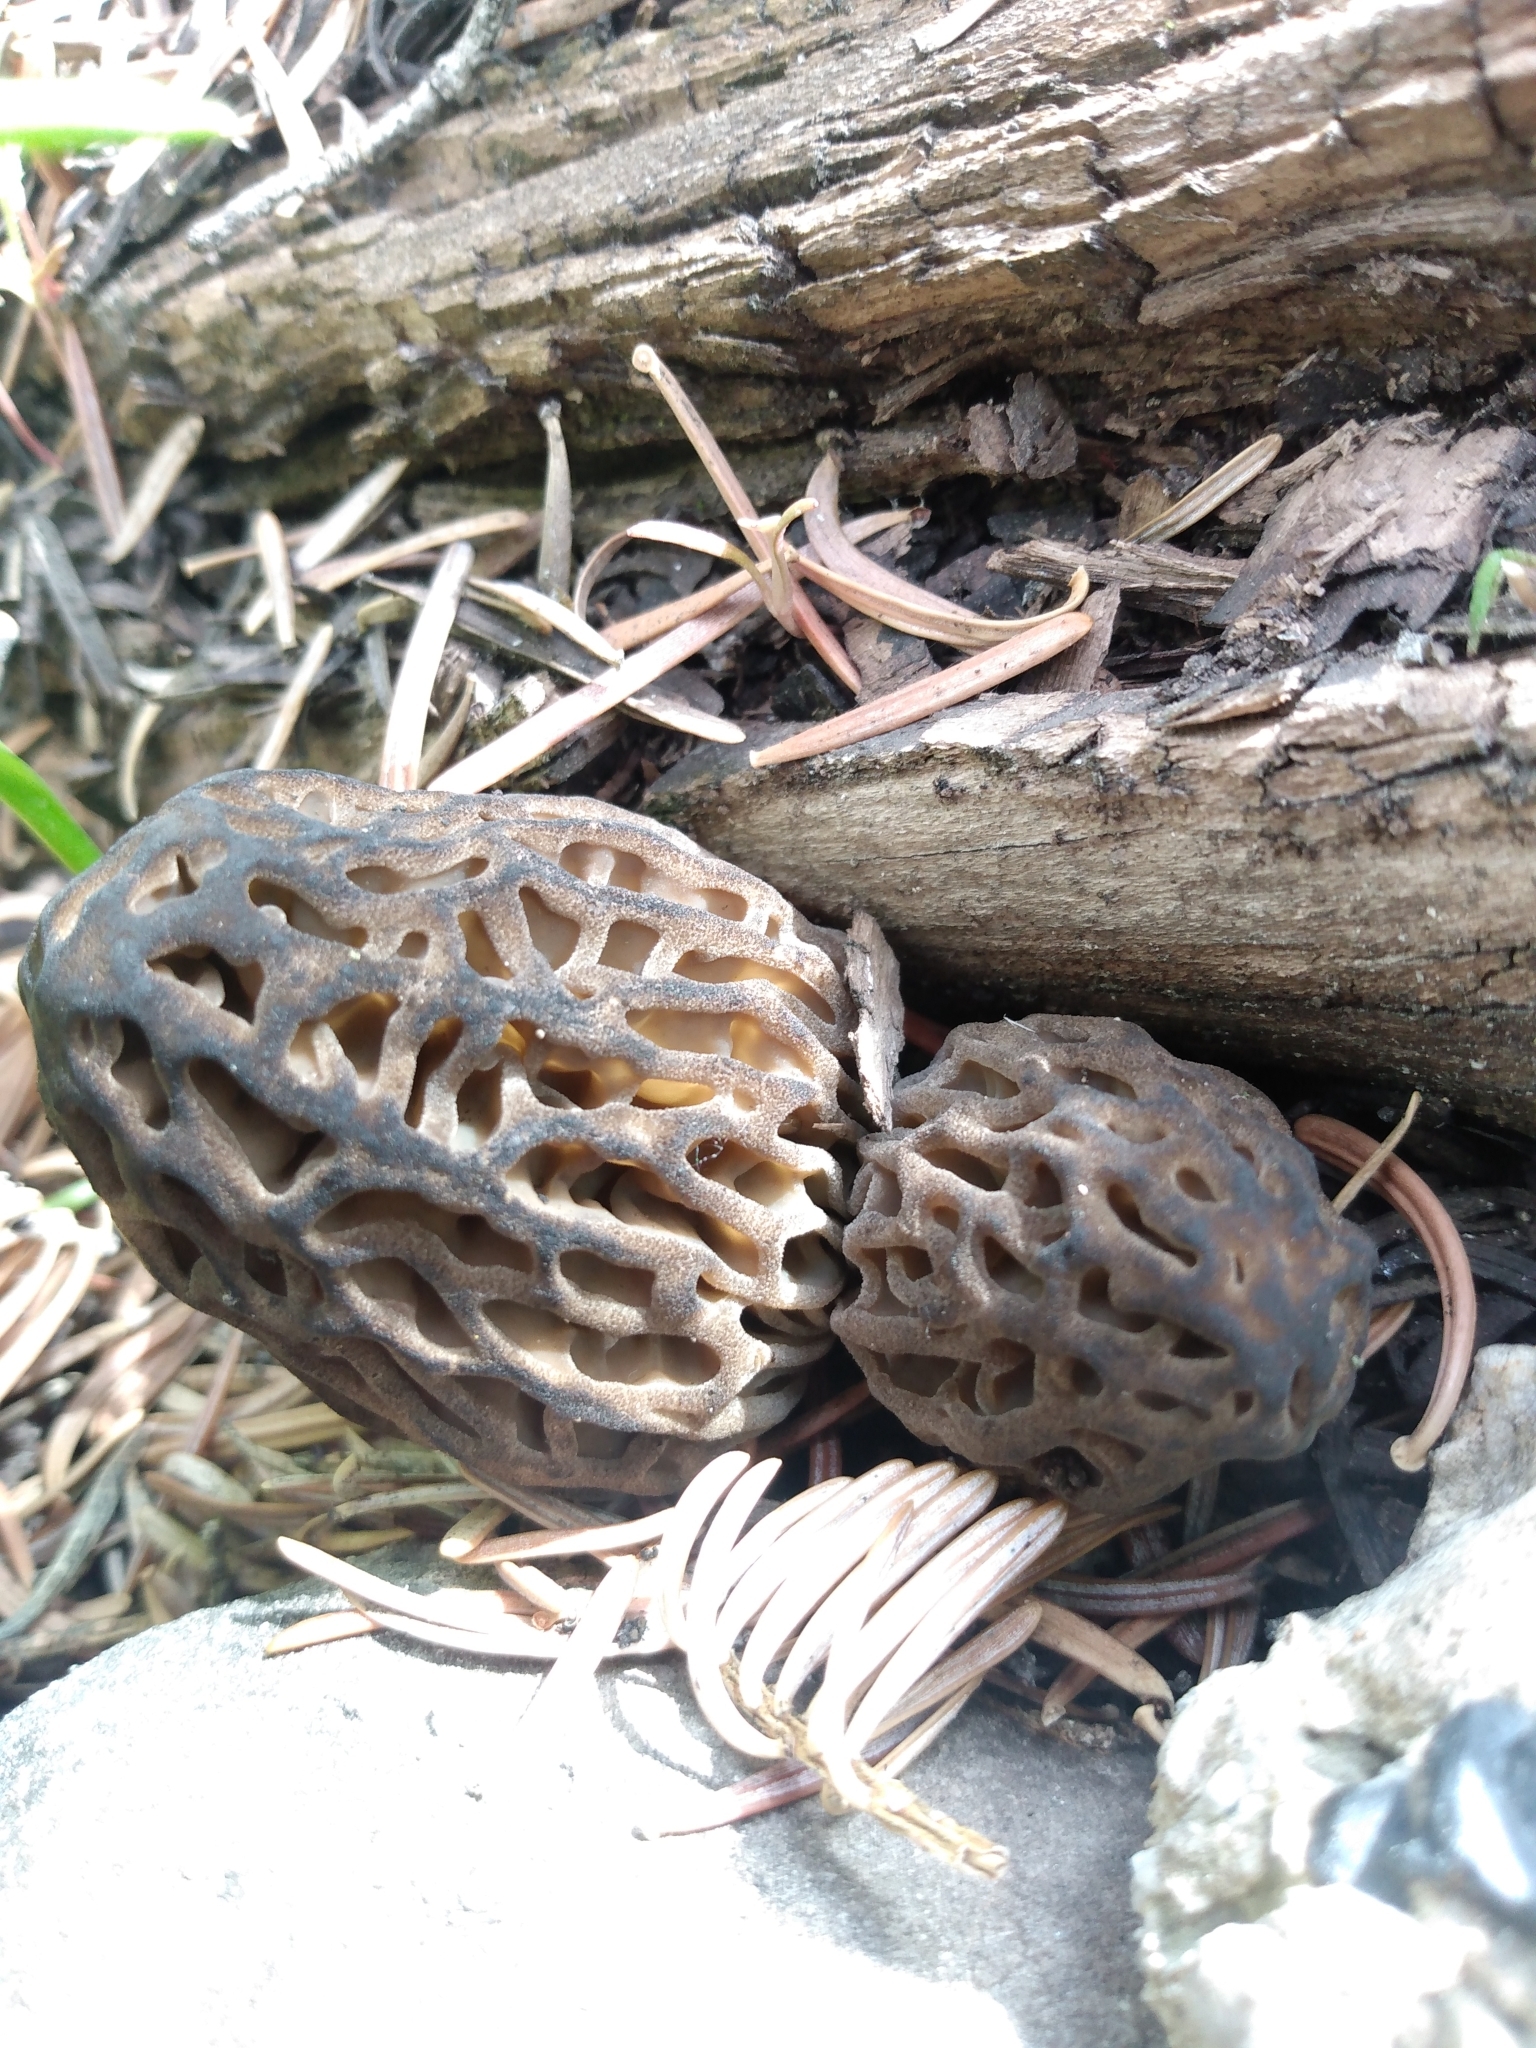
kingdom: Fungi
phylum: Ascomycota
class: Pezizomycetes
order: Pezizales
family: Morchellaceae
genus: Morchella
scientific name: Morchella snyderi
